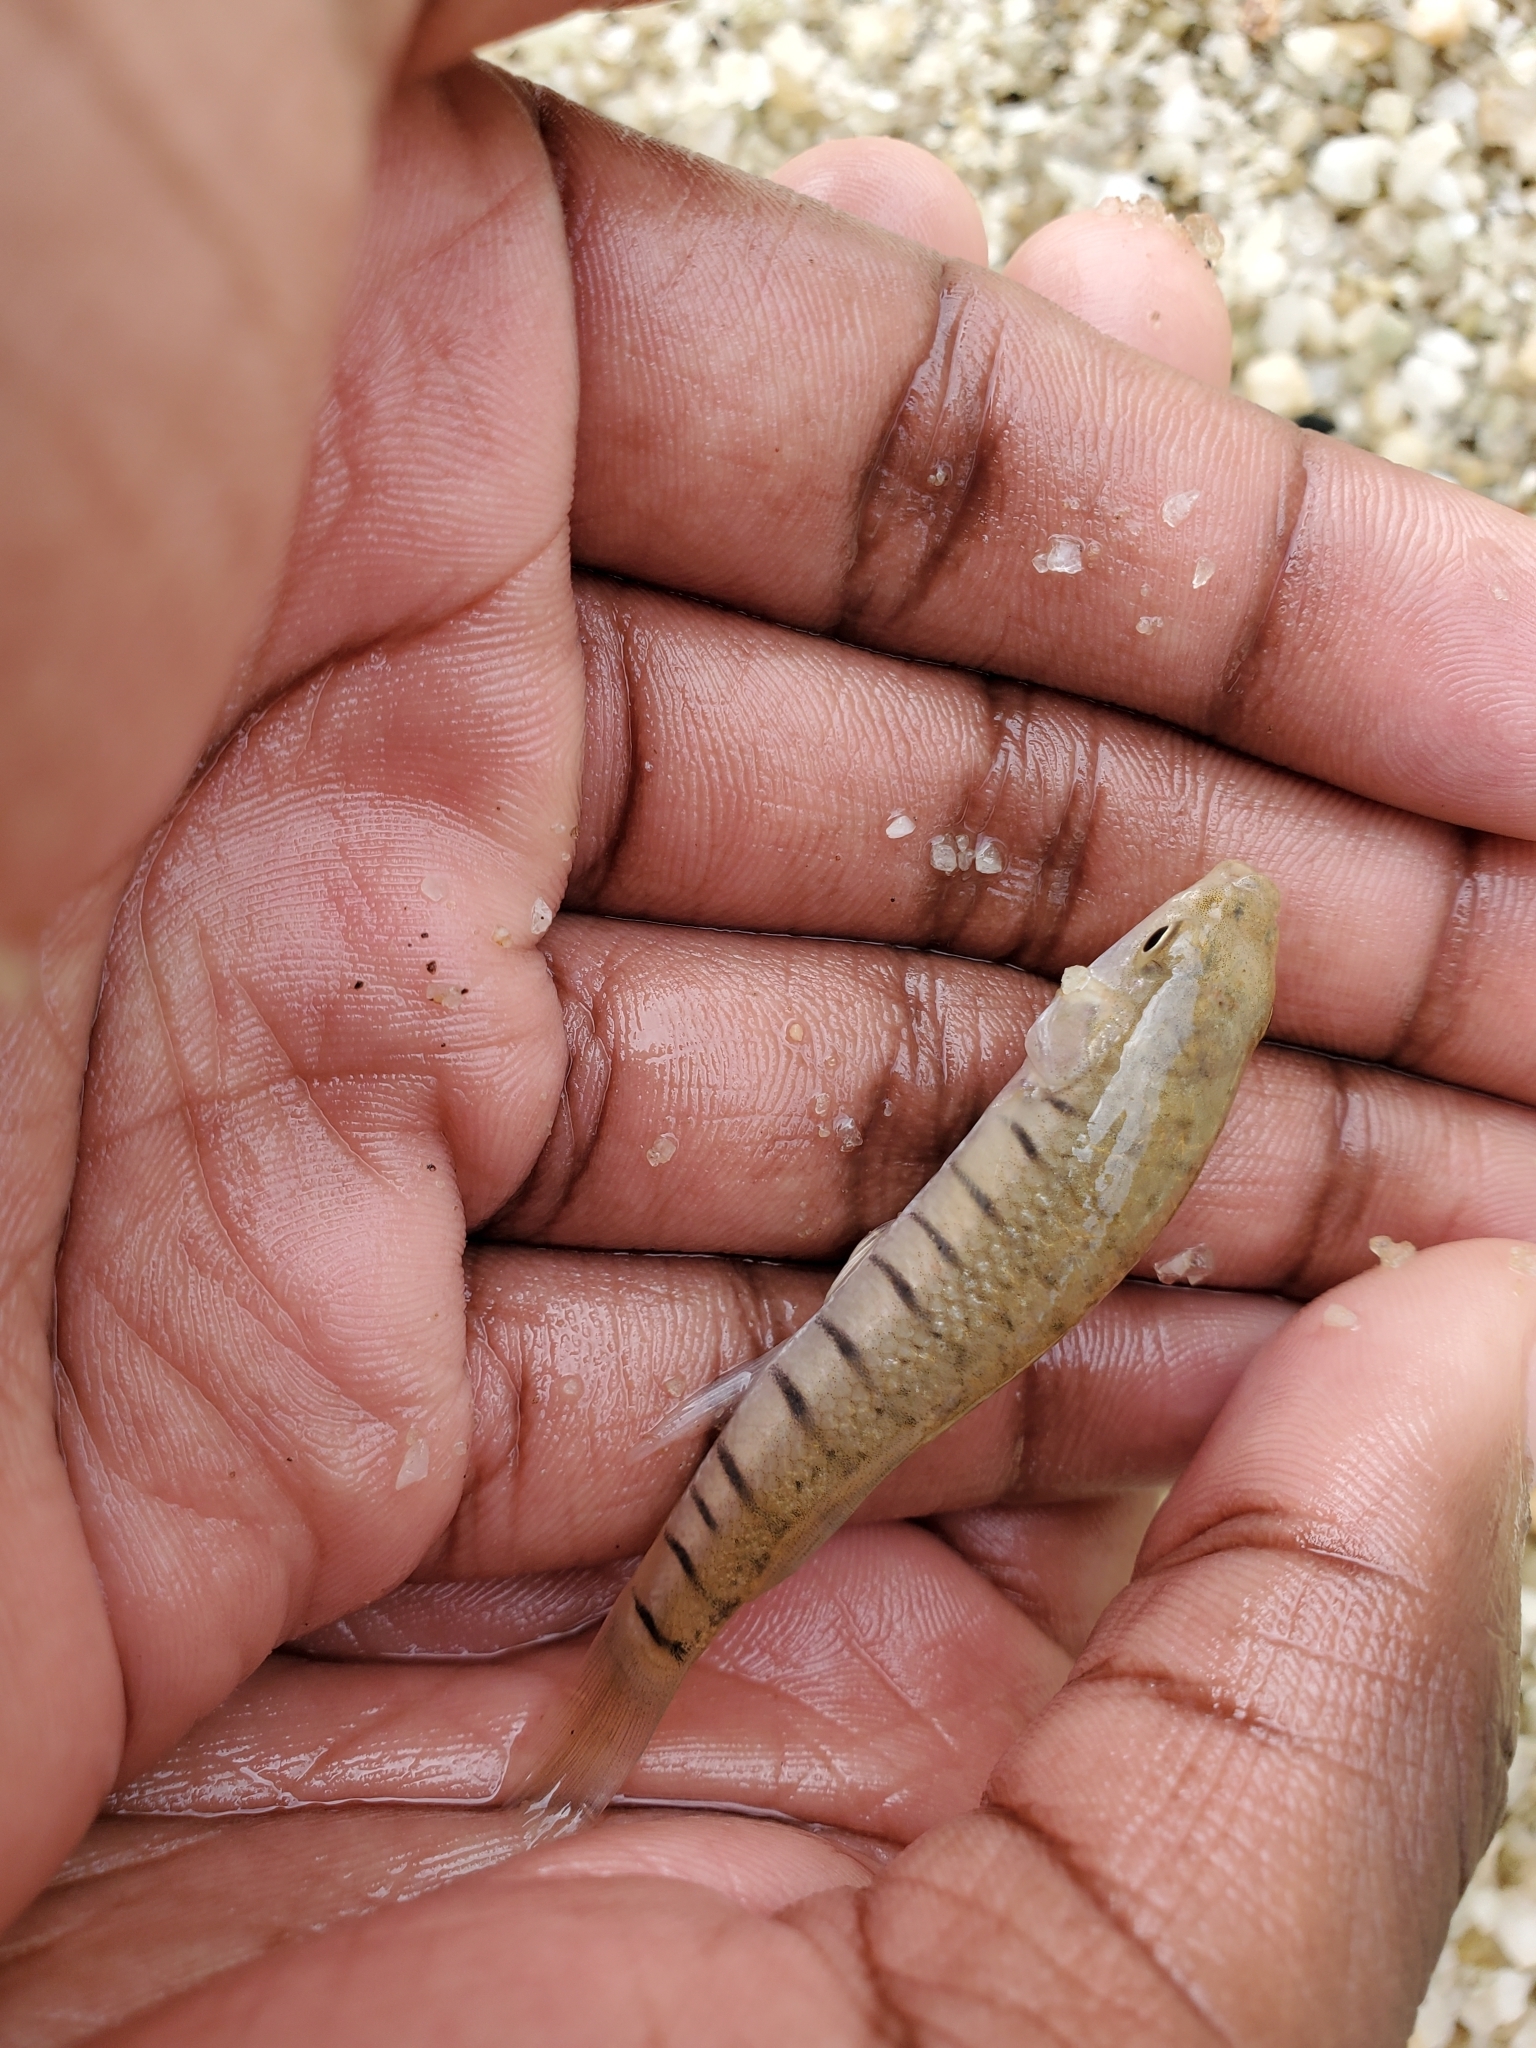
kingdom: Animalia
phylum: Chordata
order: Cyprinodontiformes
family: Fundulidae
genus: Fundulus
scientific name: Fundulus majalis
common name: Striped killifish
